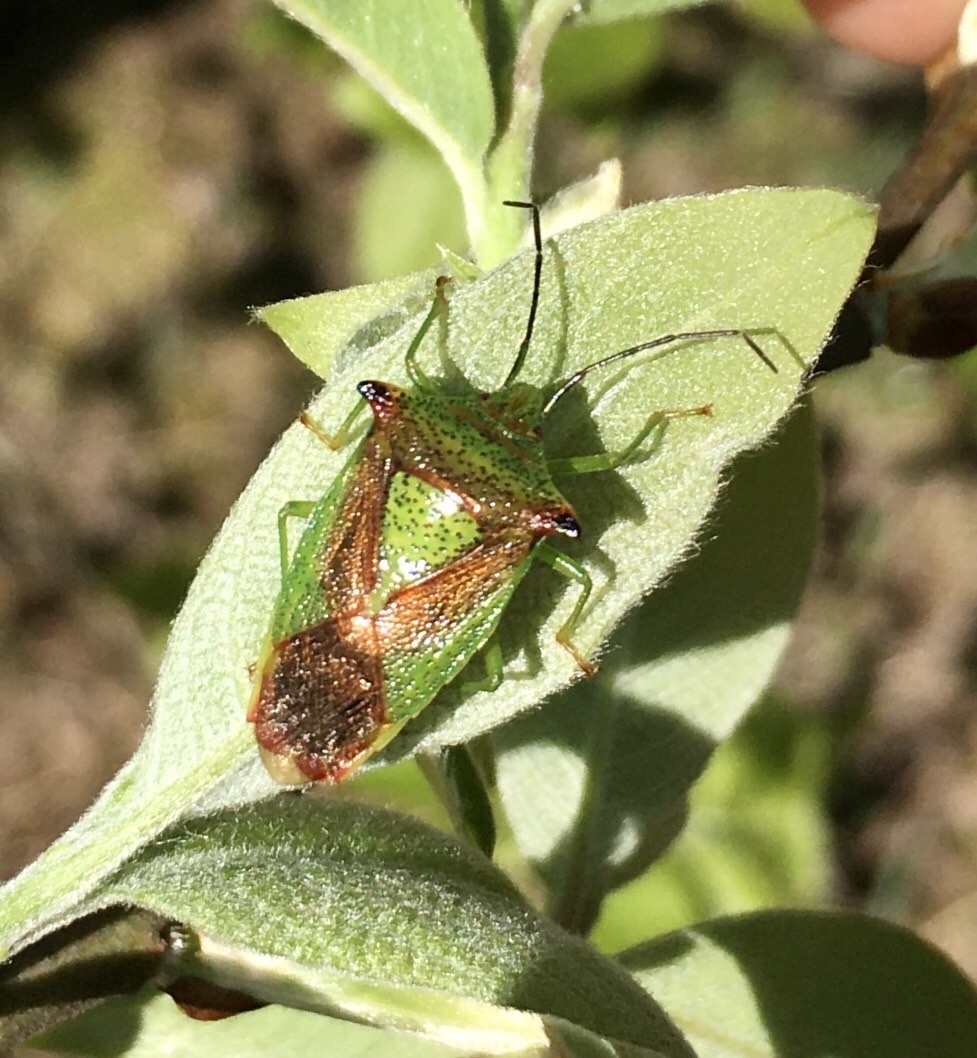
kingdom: Animalia
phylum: Arthropoda
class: Insecta
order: Hemiptera
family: Acanthosomatidae
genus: Acanthosoma
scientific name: Acanthosoma haemorrhoidale
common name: Hawthorn shieldbug
